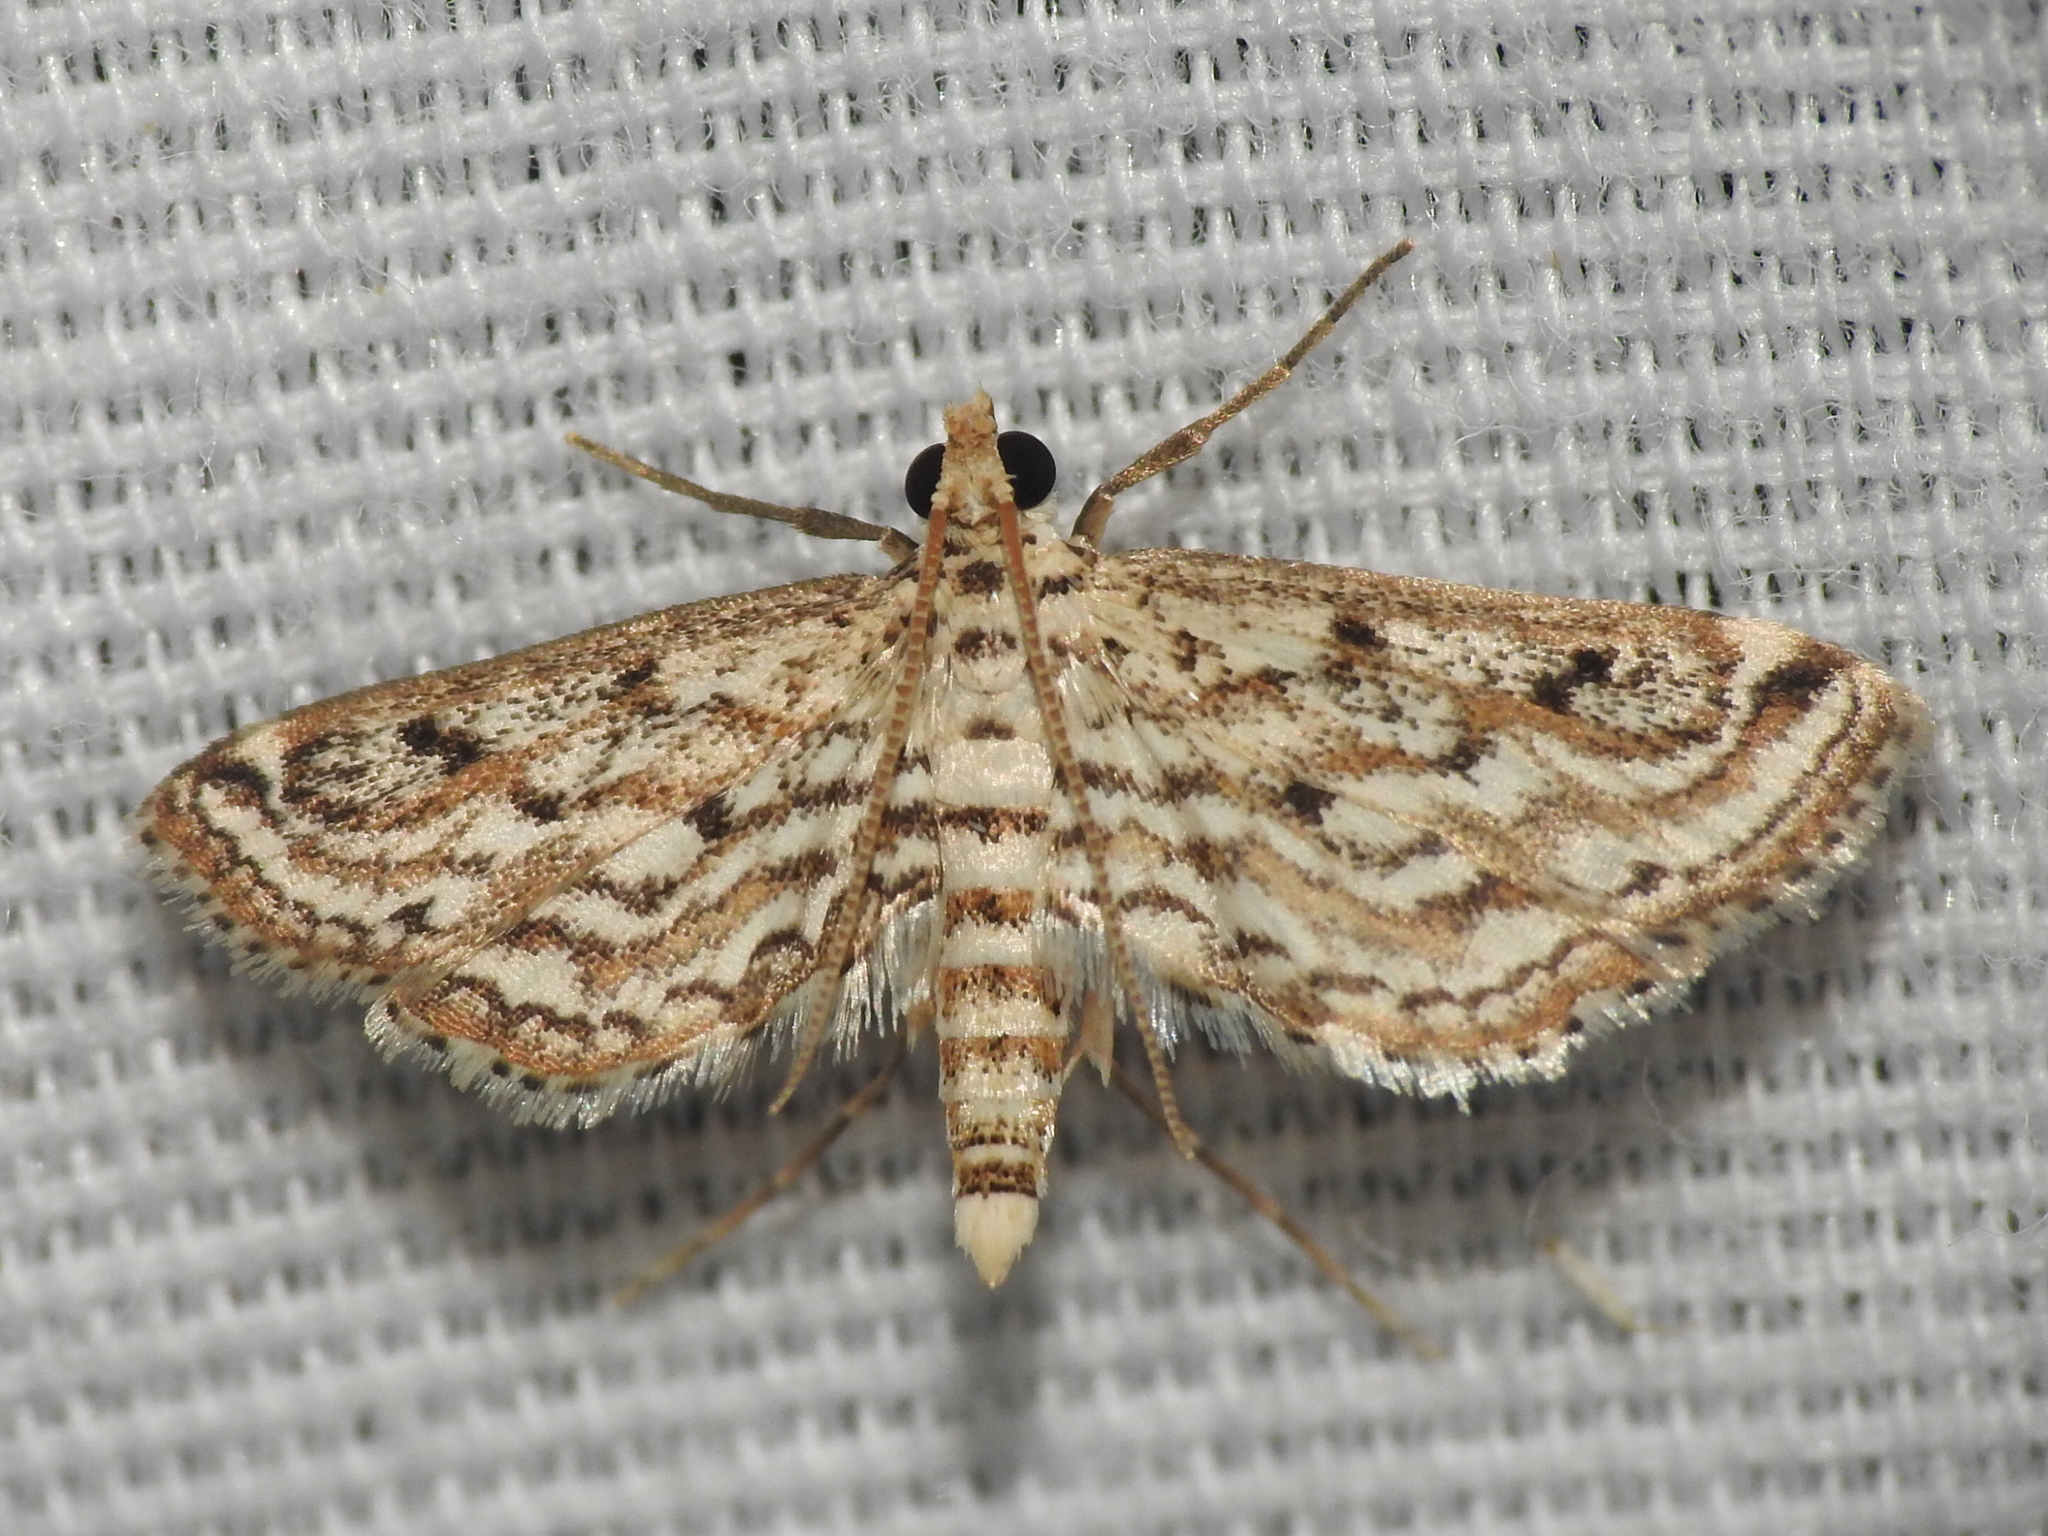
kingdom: Animalia
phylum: Arthropoda
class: Insecta
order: Lepidoptera
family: Crambidae
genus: Parapoynx
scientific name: Parapoynx allionealis
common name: Bladderwort casemaker
